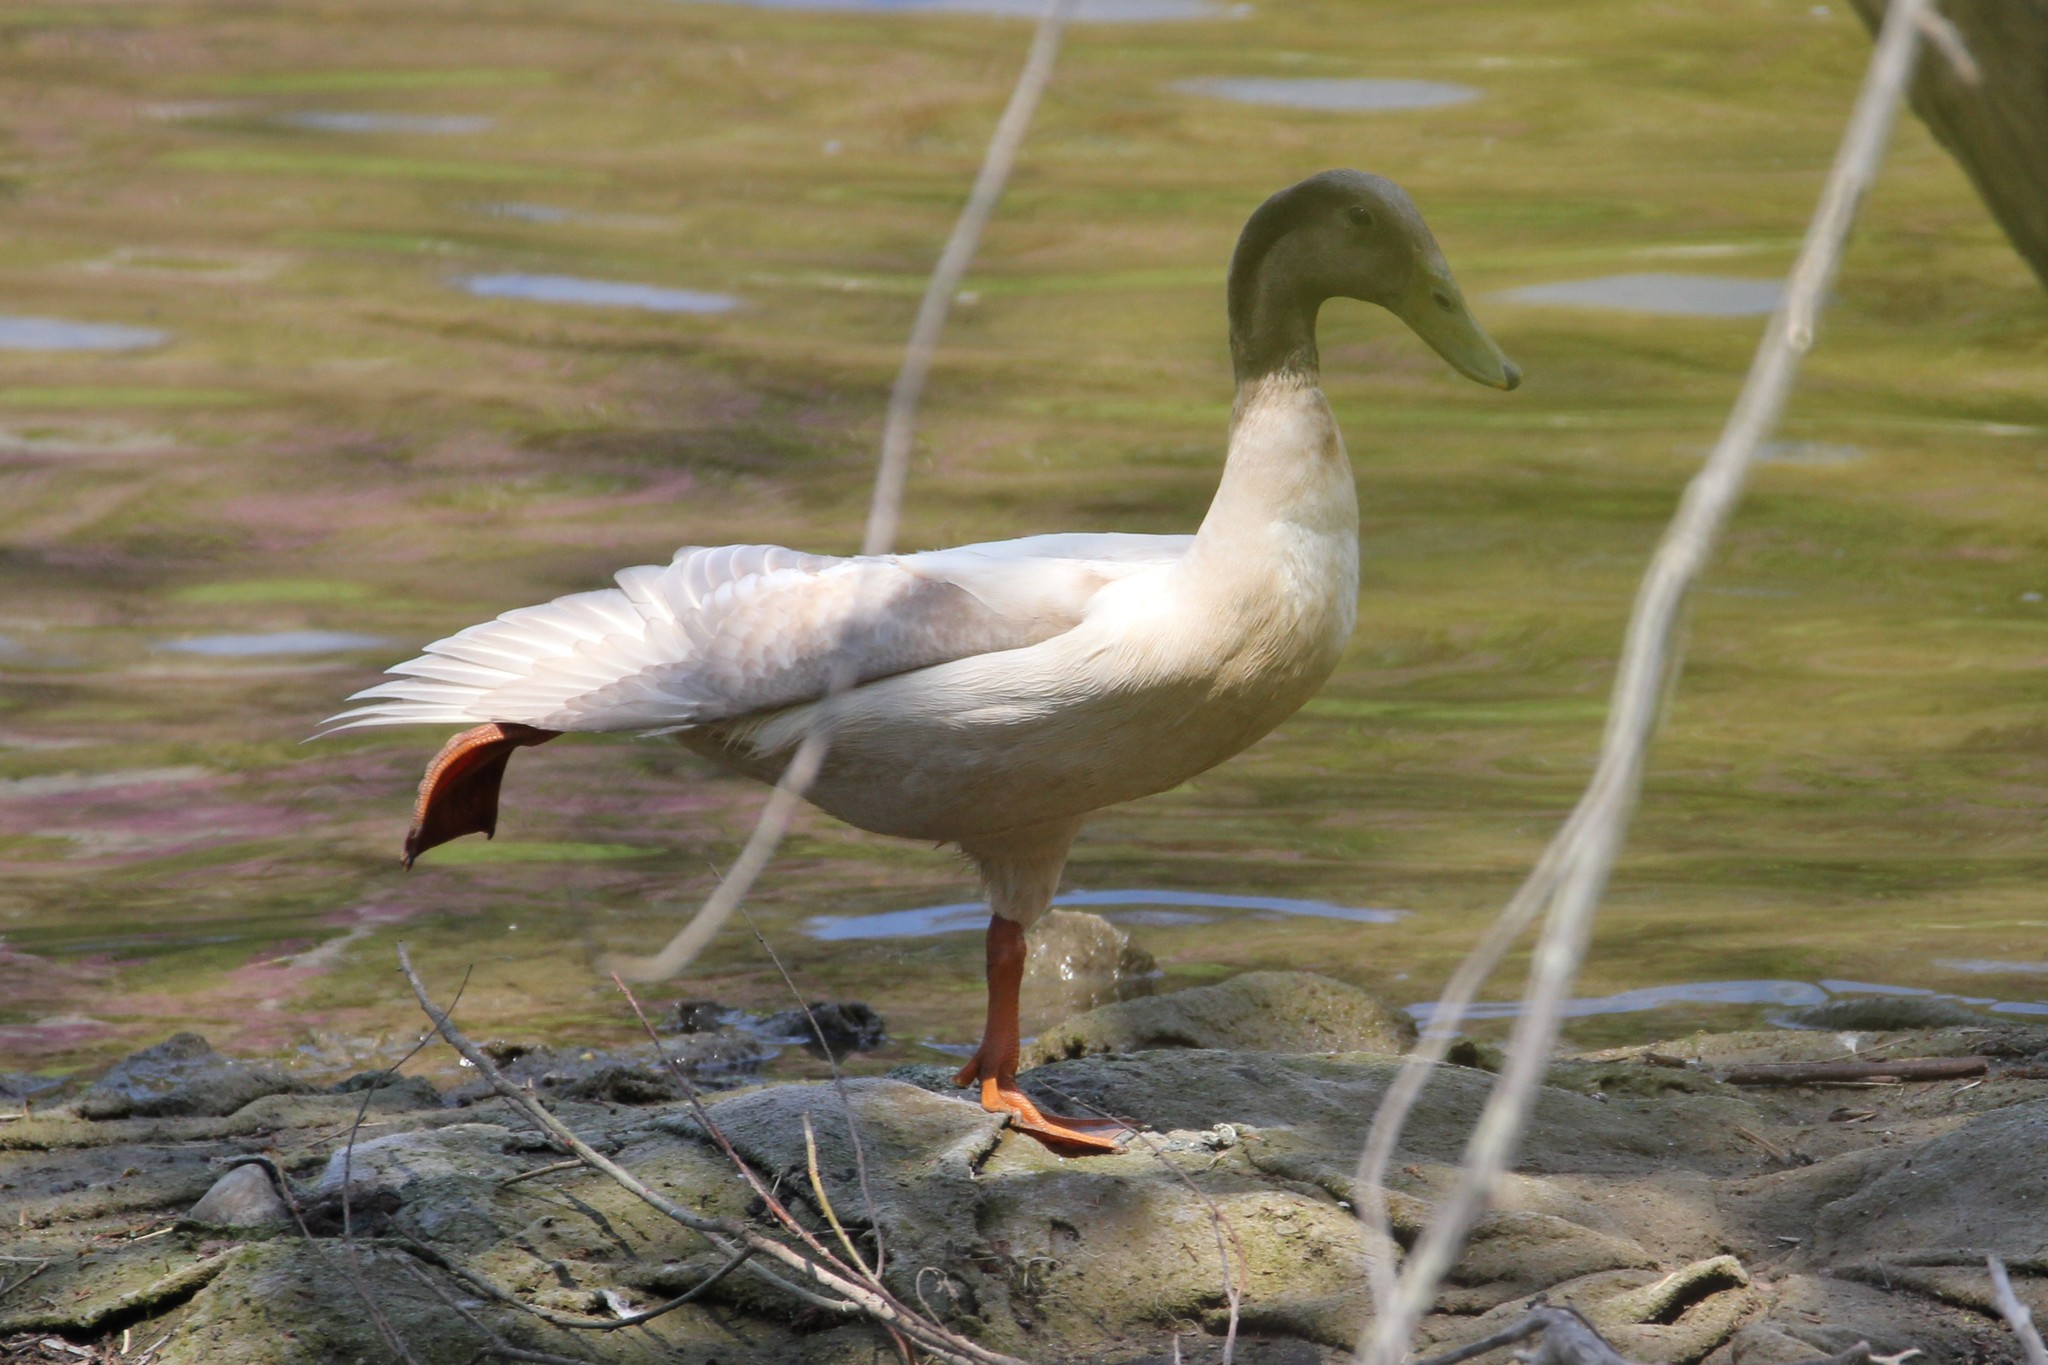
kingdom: Animalia
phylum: Chordata
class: Aves
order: Anseriformes
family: Anatidae
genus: Anas
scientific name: Anas platyrhynchos
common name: Mallard
